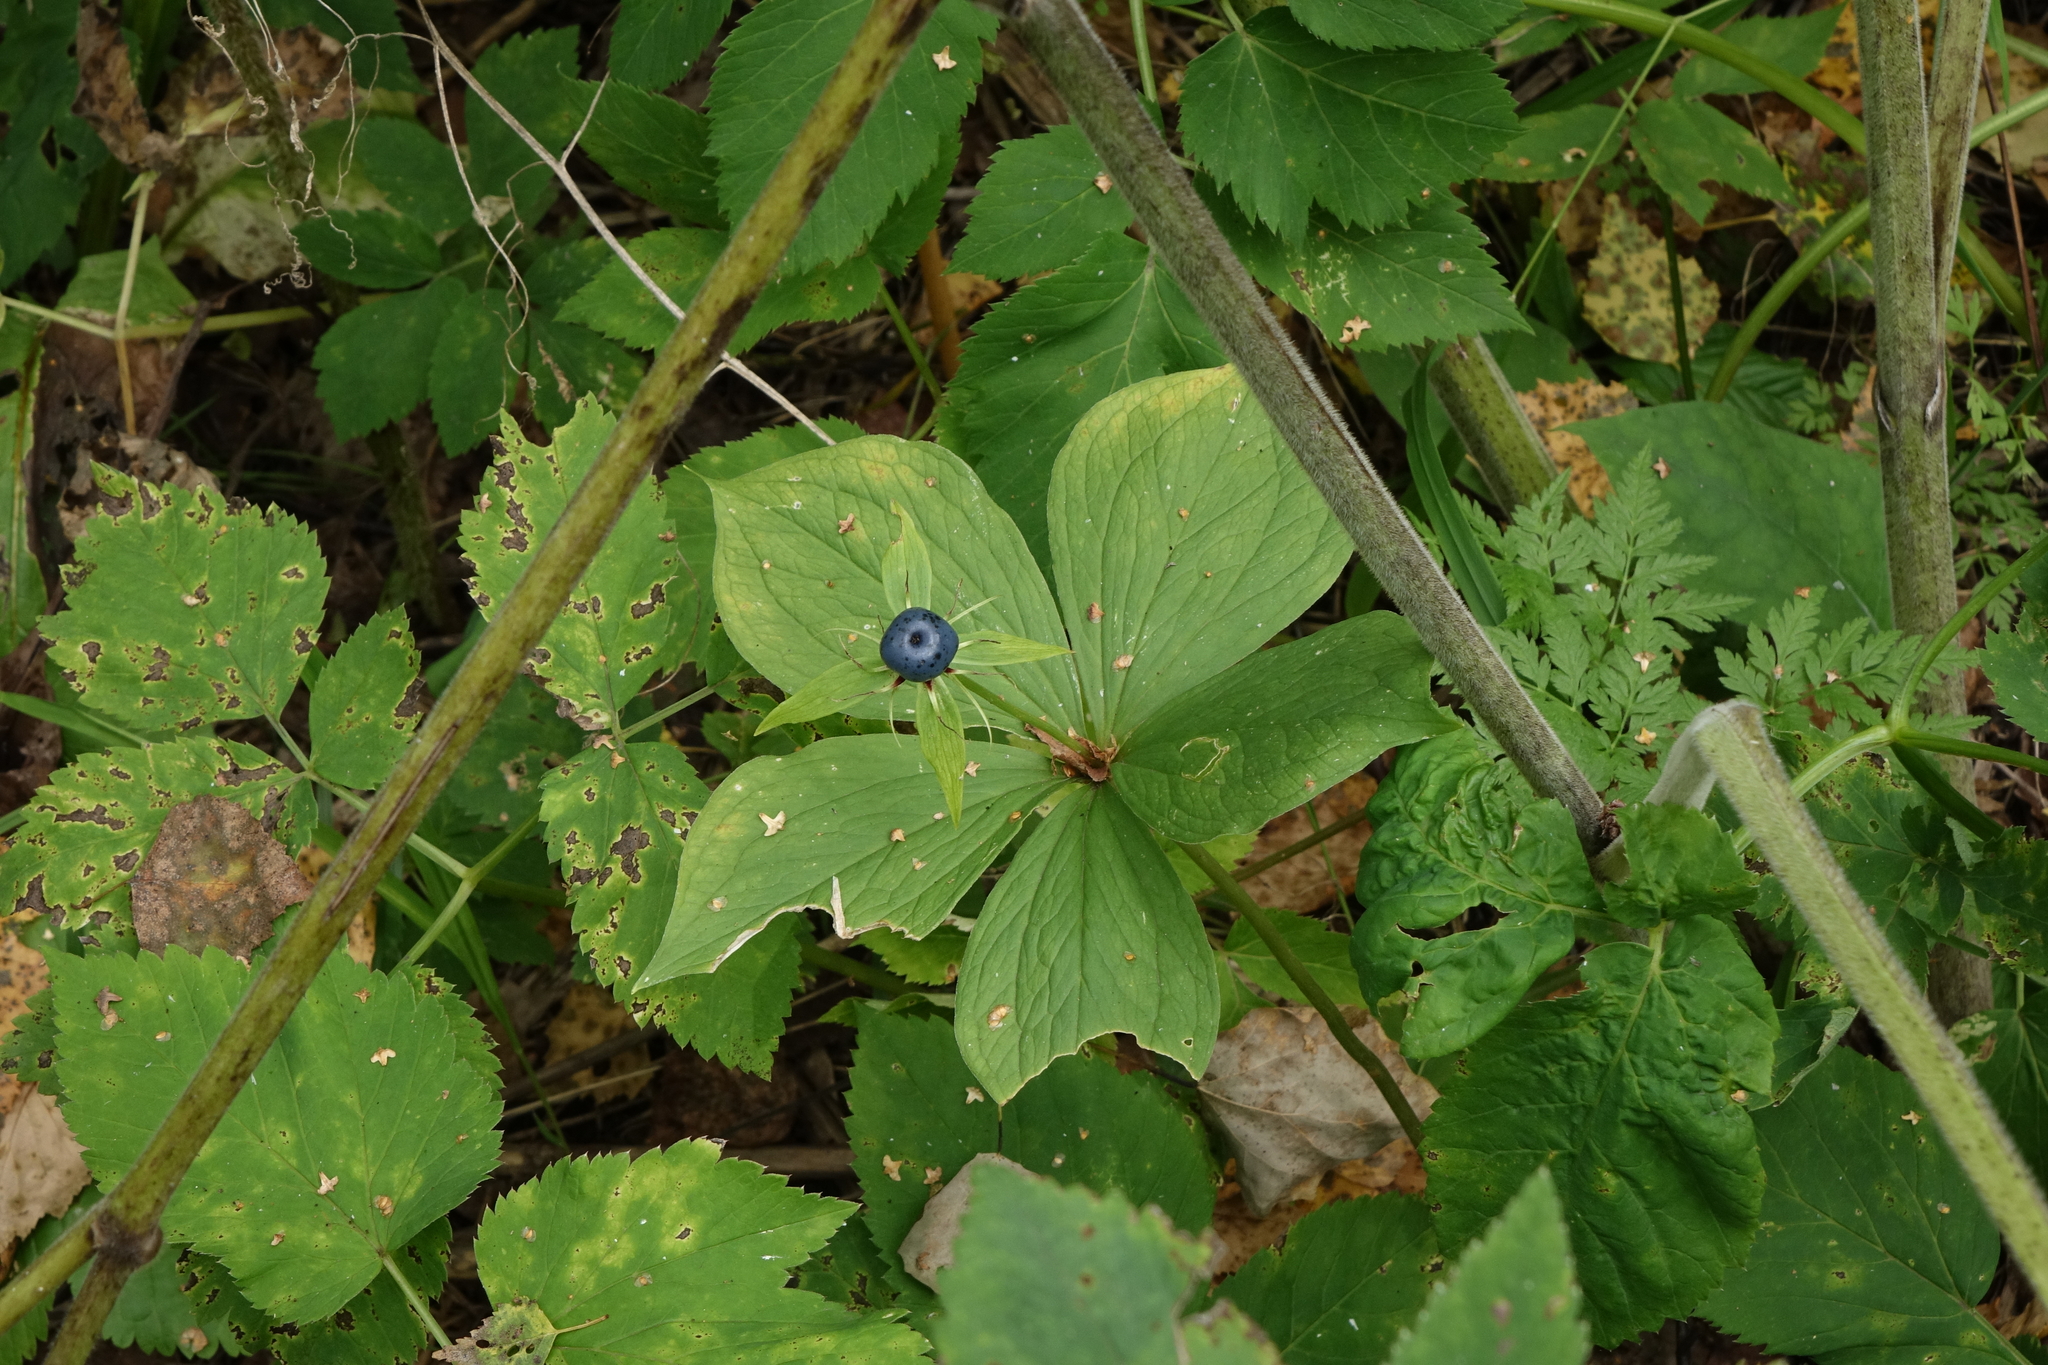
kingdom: Plantae
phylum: Tracheophyta
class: Liliopsida
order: Liliales
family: Melanthiaceae
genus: Paris
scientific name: Paris quadrifolia
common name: Herb-paris
